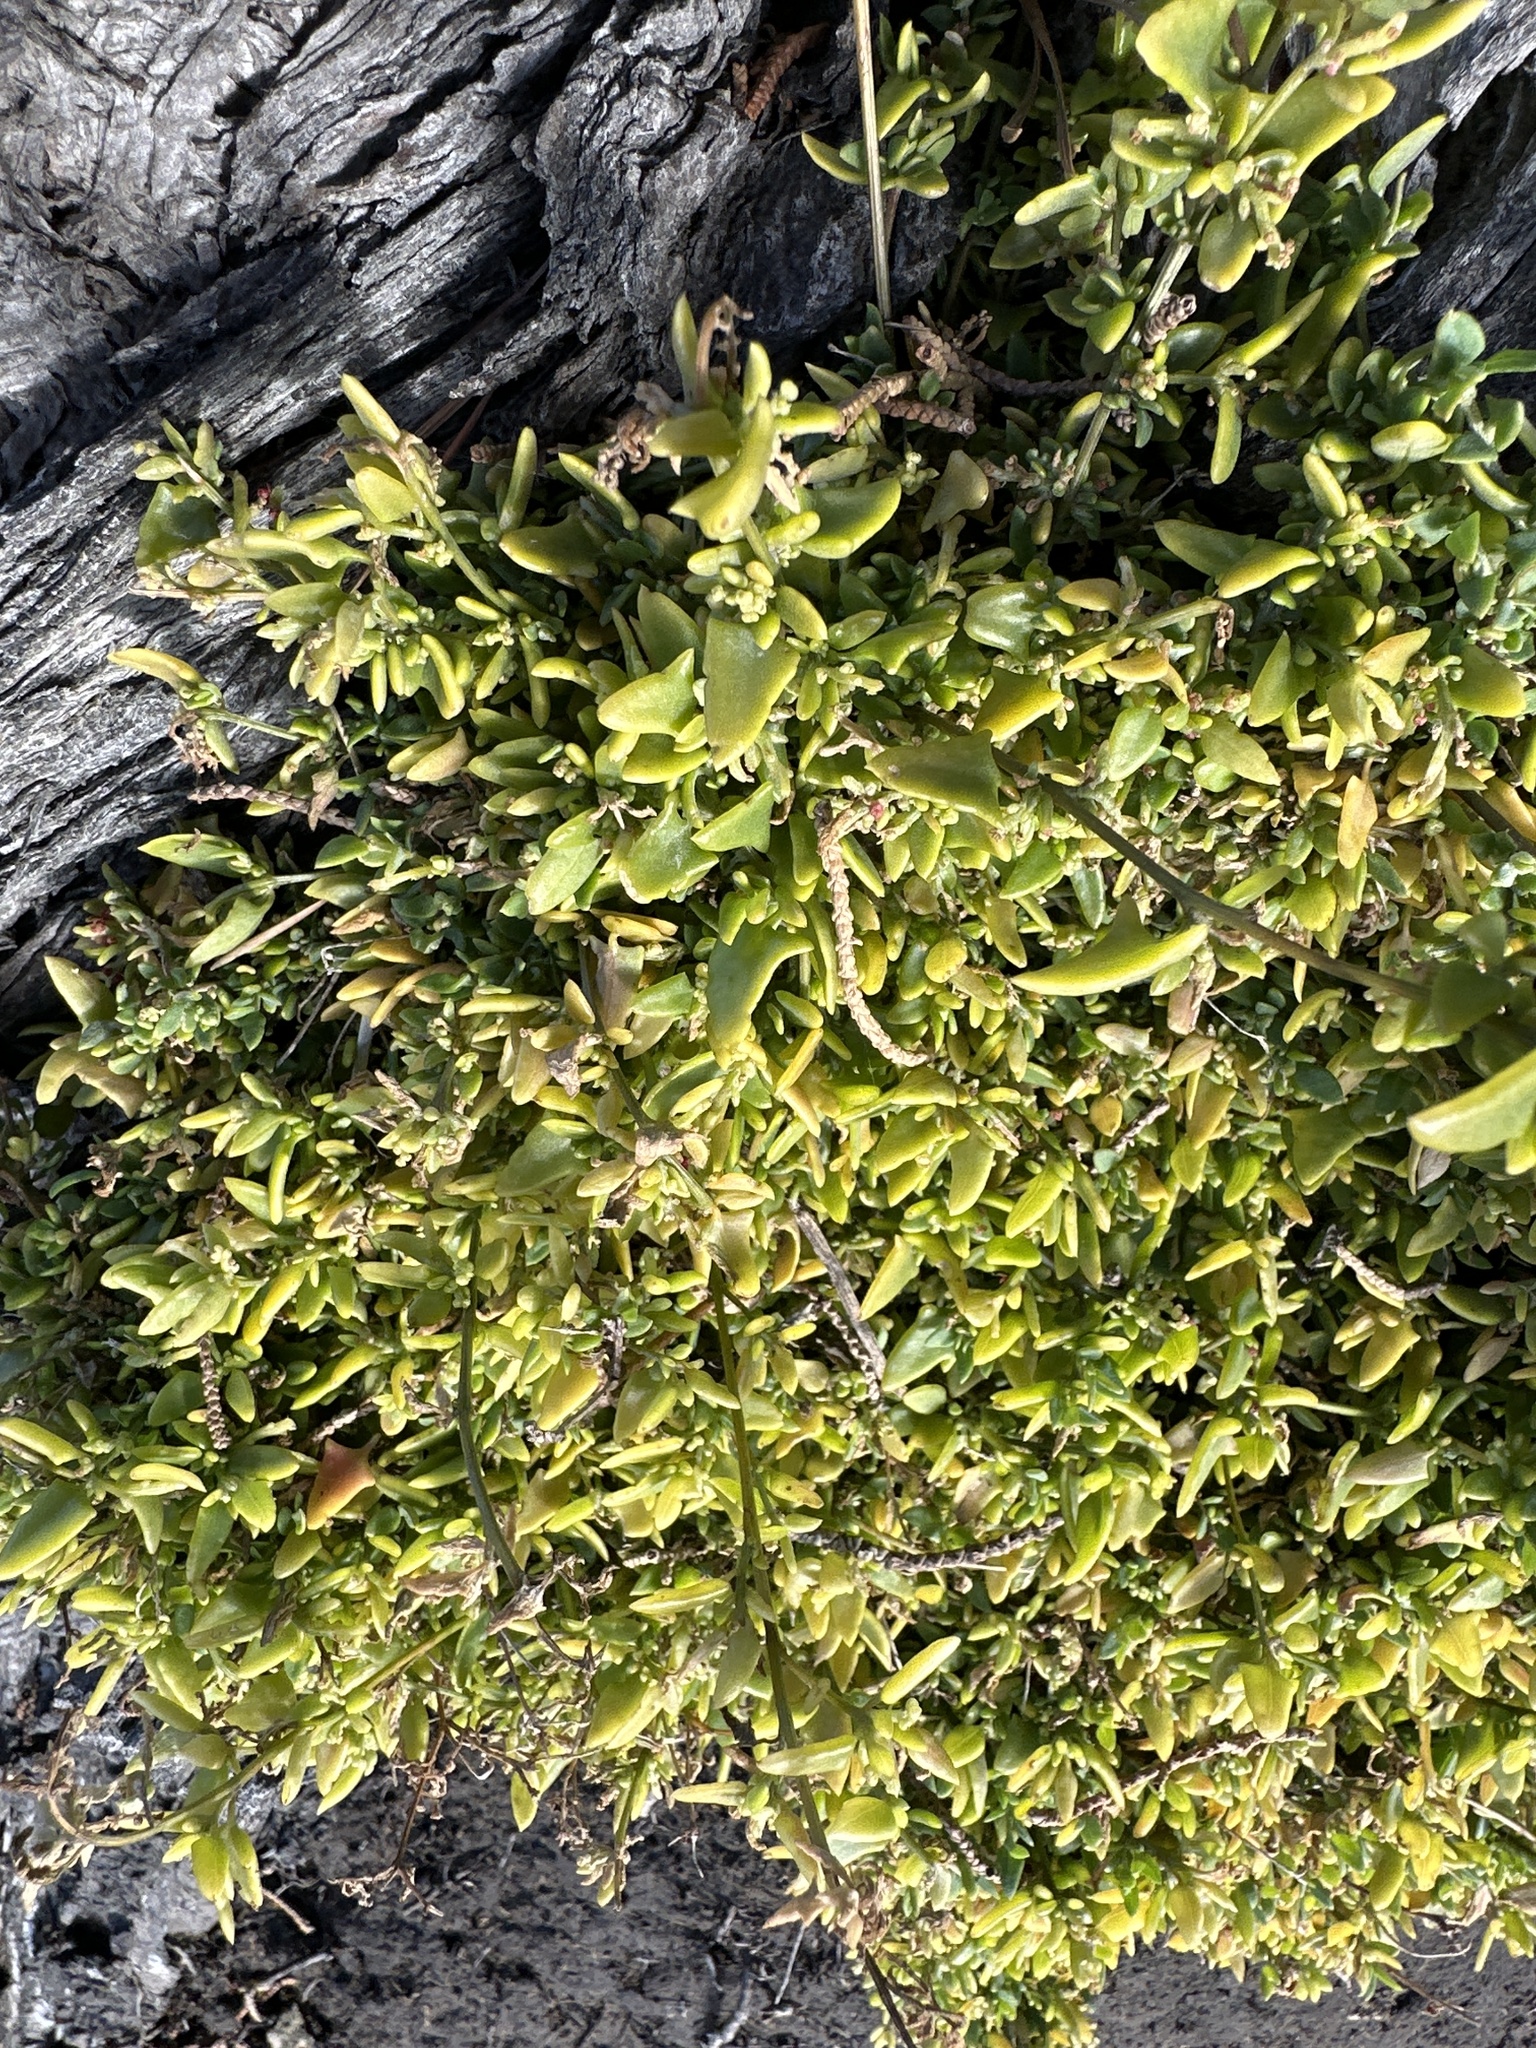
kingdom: Plantae
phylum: Tracheophyta
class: Magnoliopsida
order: Caryophyllales
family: Amaranthaceae
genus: Oxybasis
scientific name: Oxybasis ambigua
